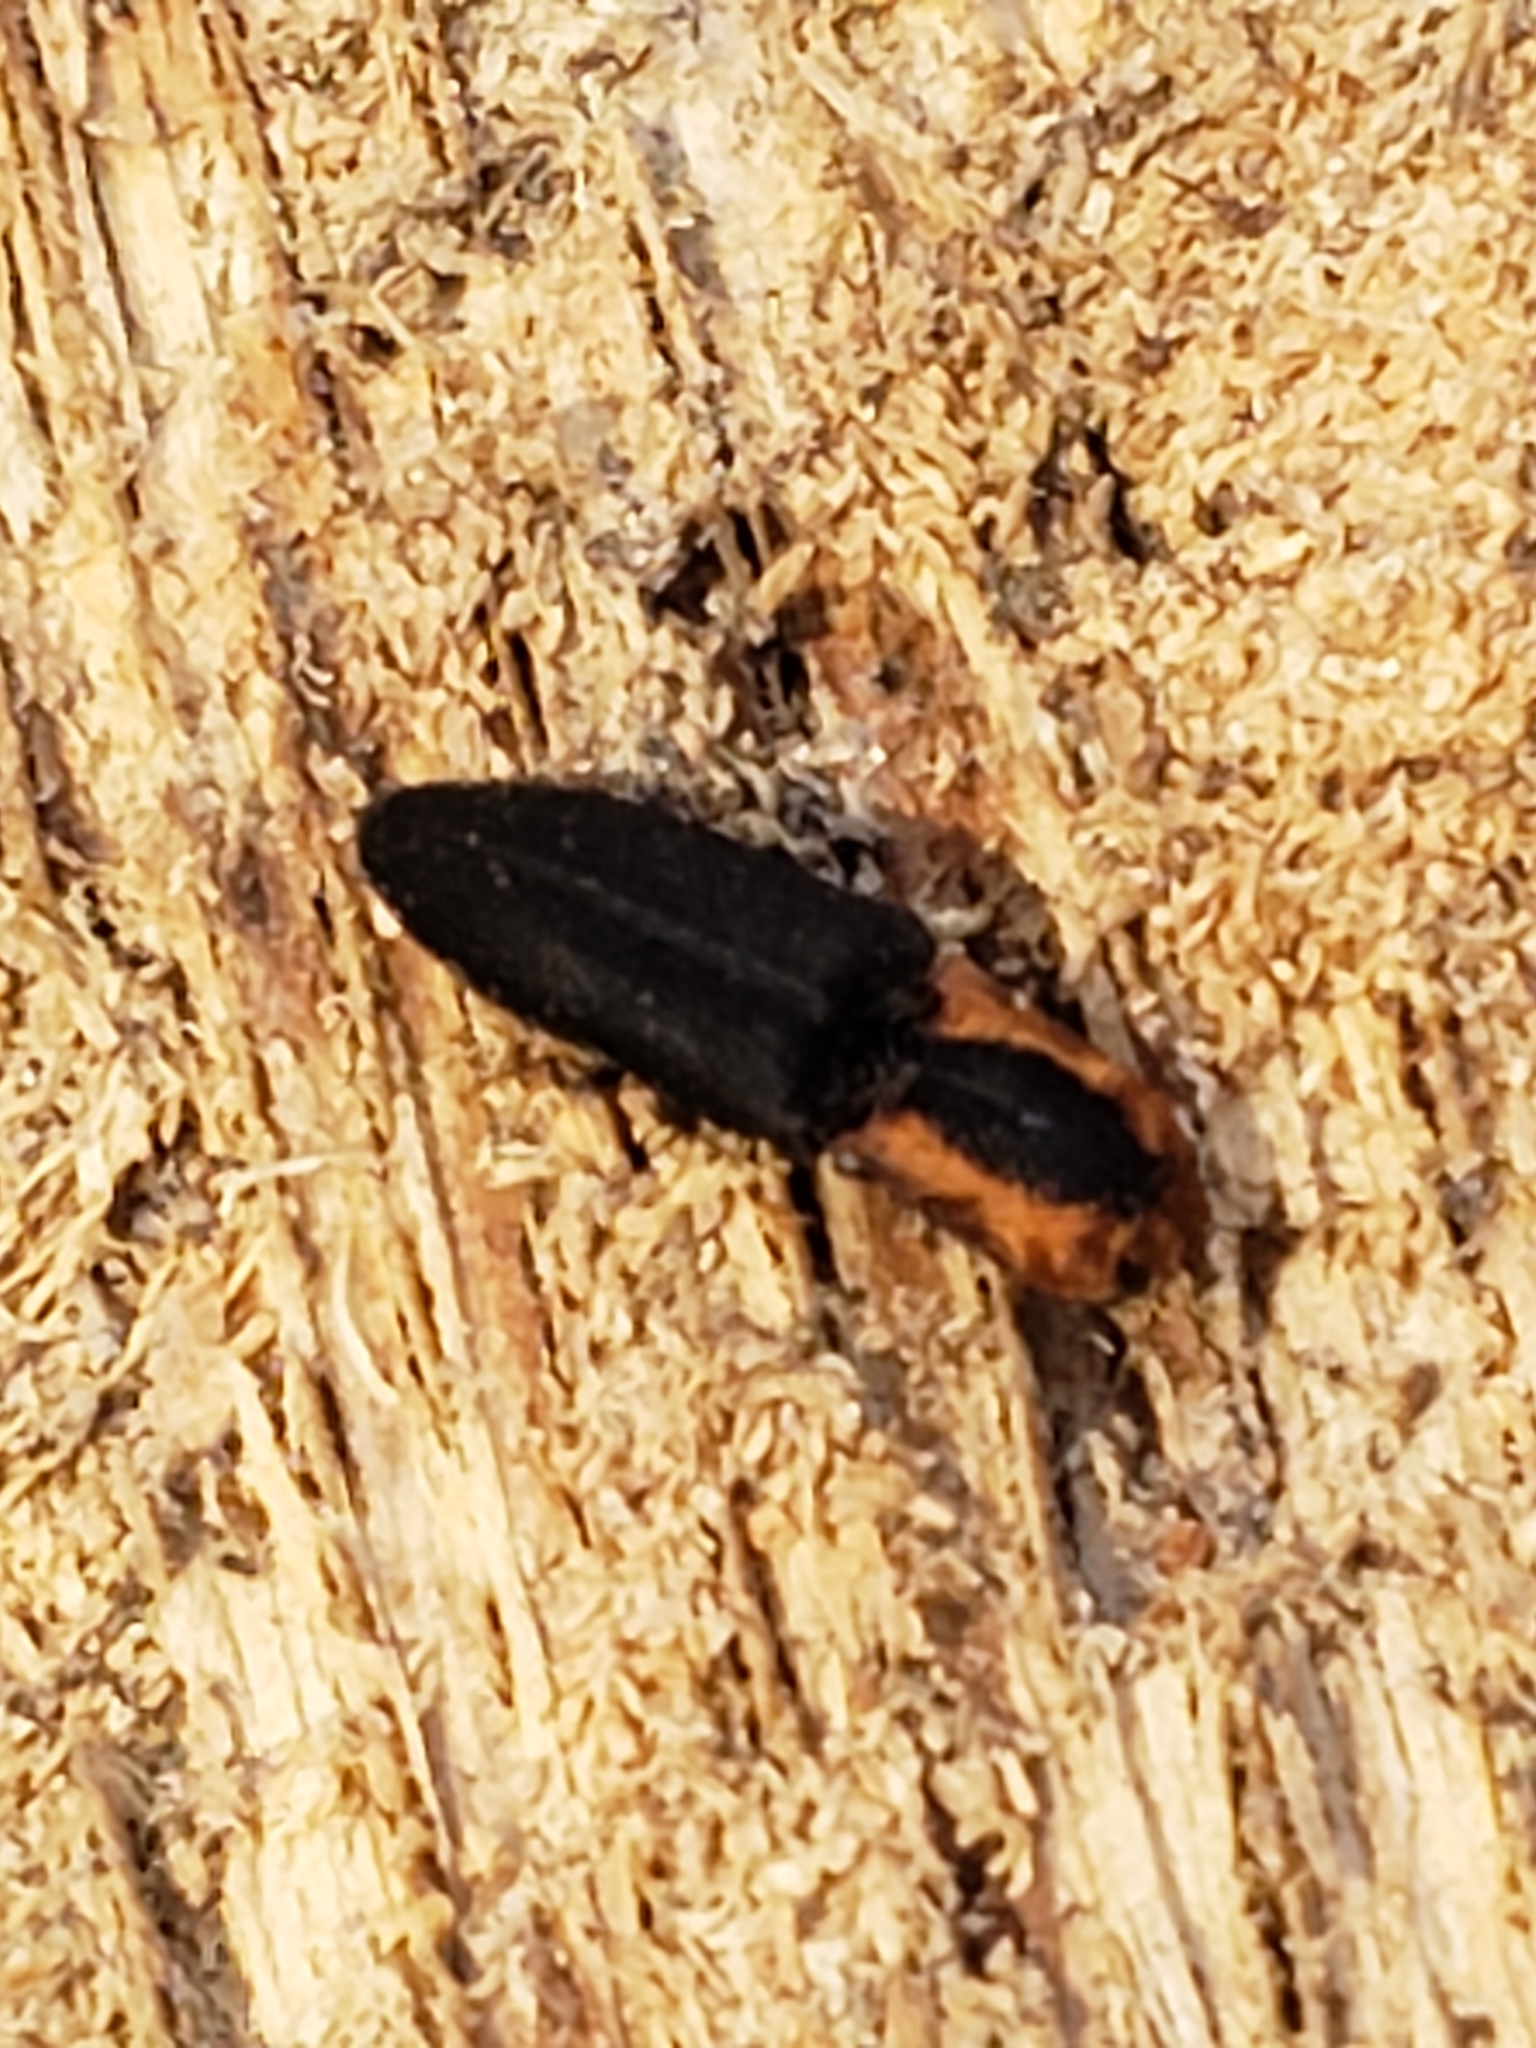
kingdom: Animalia
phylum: Arthropoda
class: Insecta
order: Coleoptera
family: Elateridae
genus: Lacon
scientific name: Lacon discoideus
